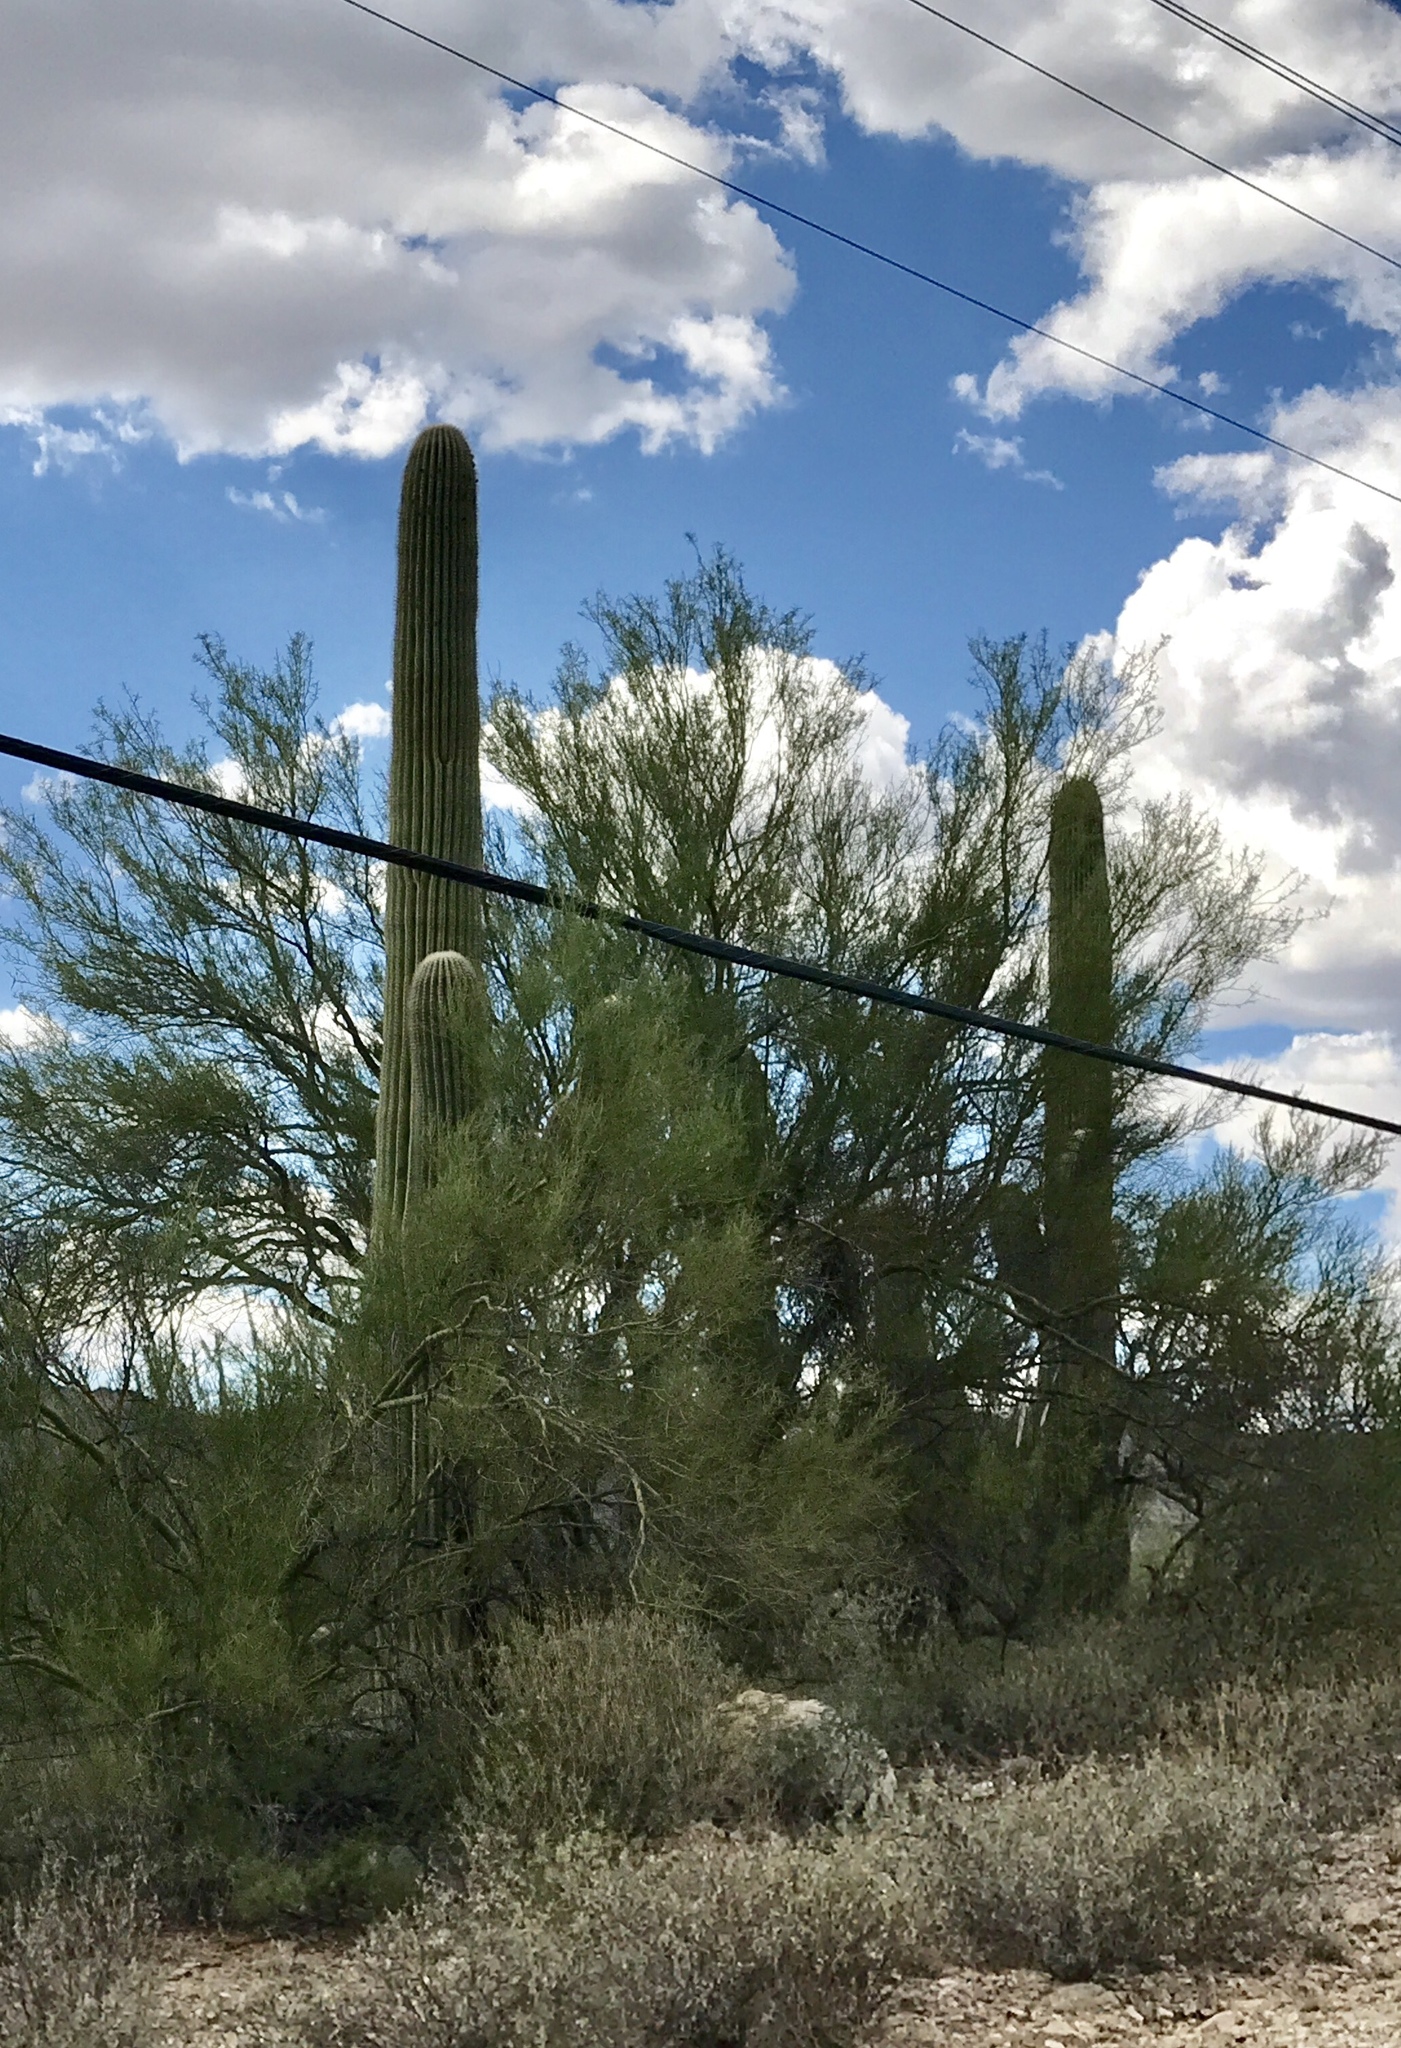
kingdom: Plantae
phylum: Tracheophyta
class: Magnoliopsida
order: Caryophyllales
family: Cactaceae
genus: Carnegiea
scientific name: Carnegiea gigantea
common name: Saguaro
